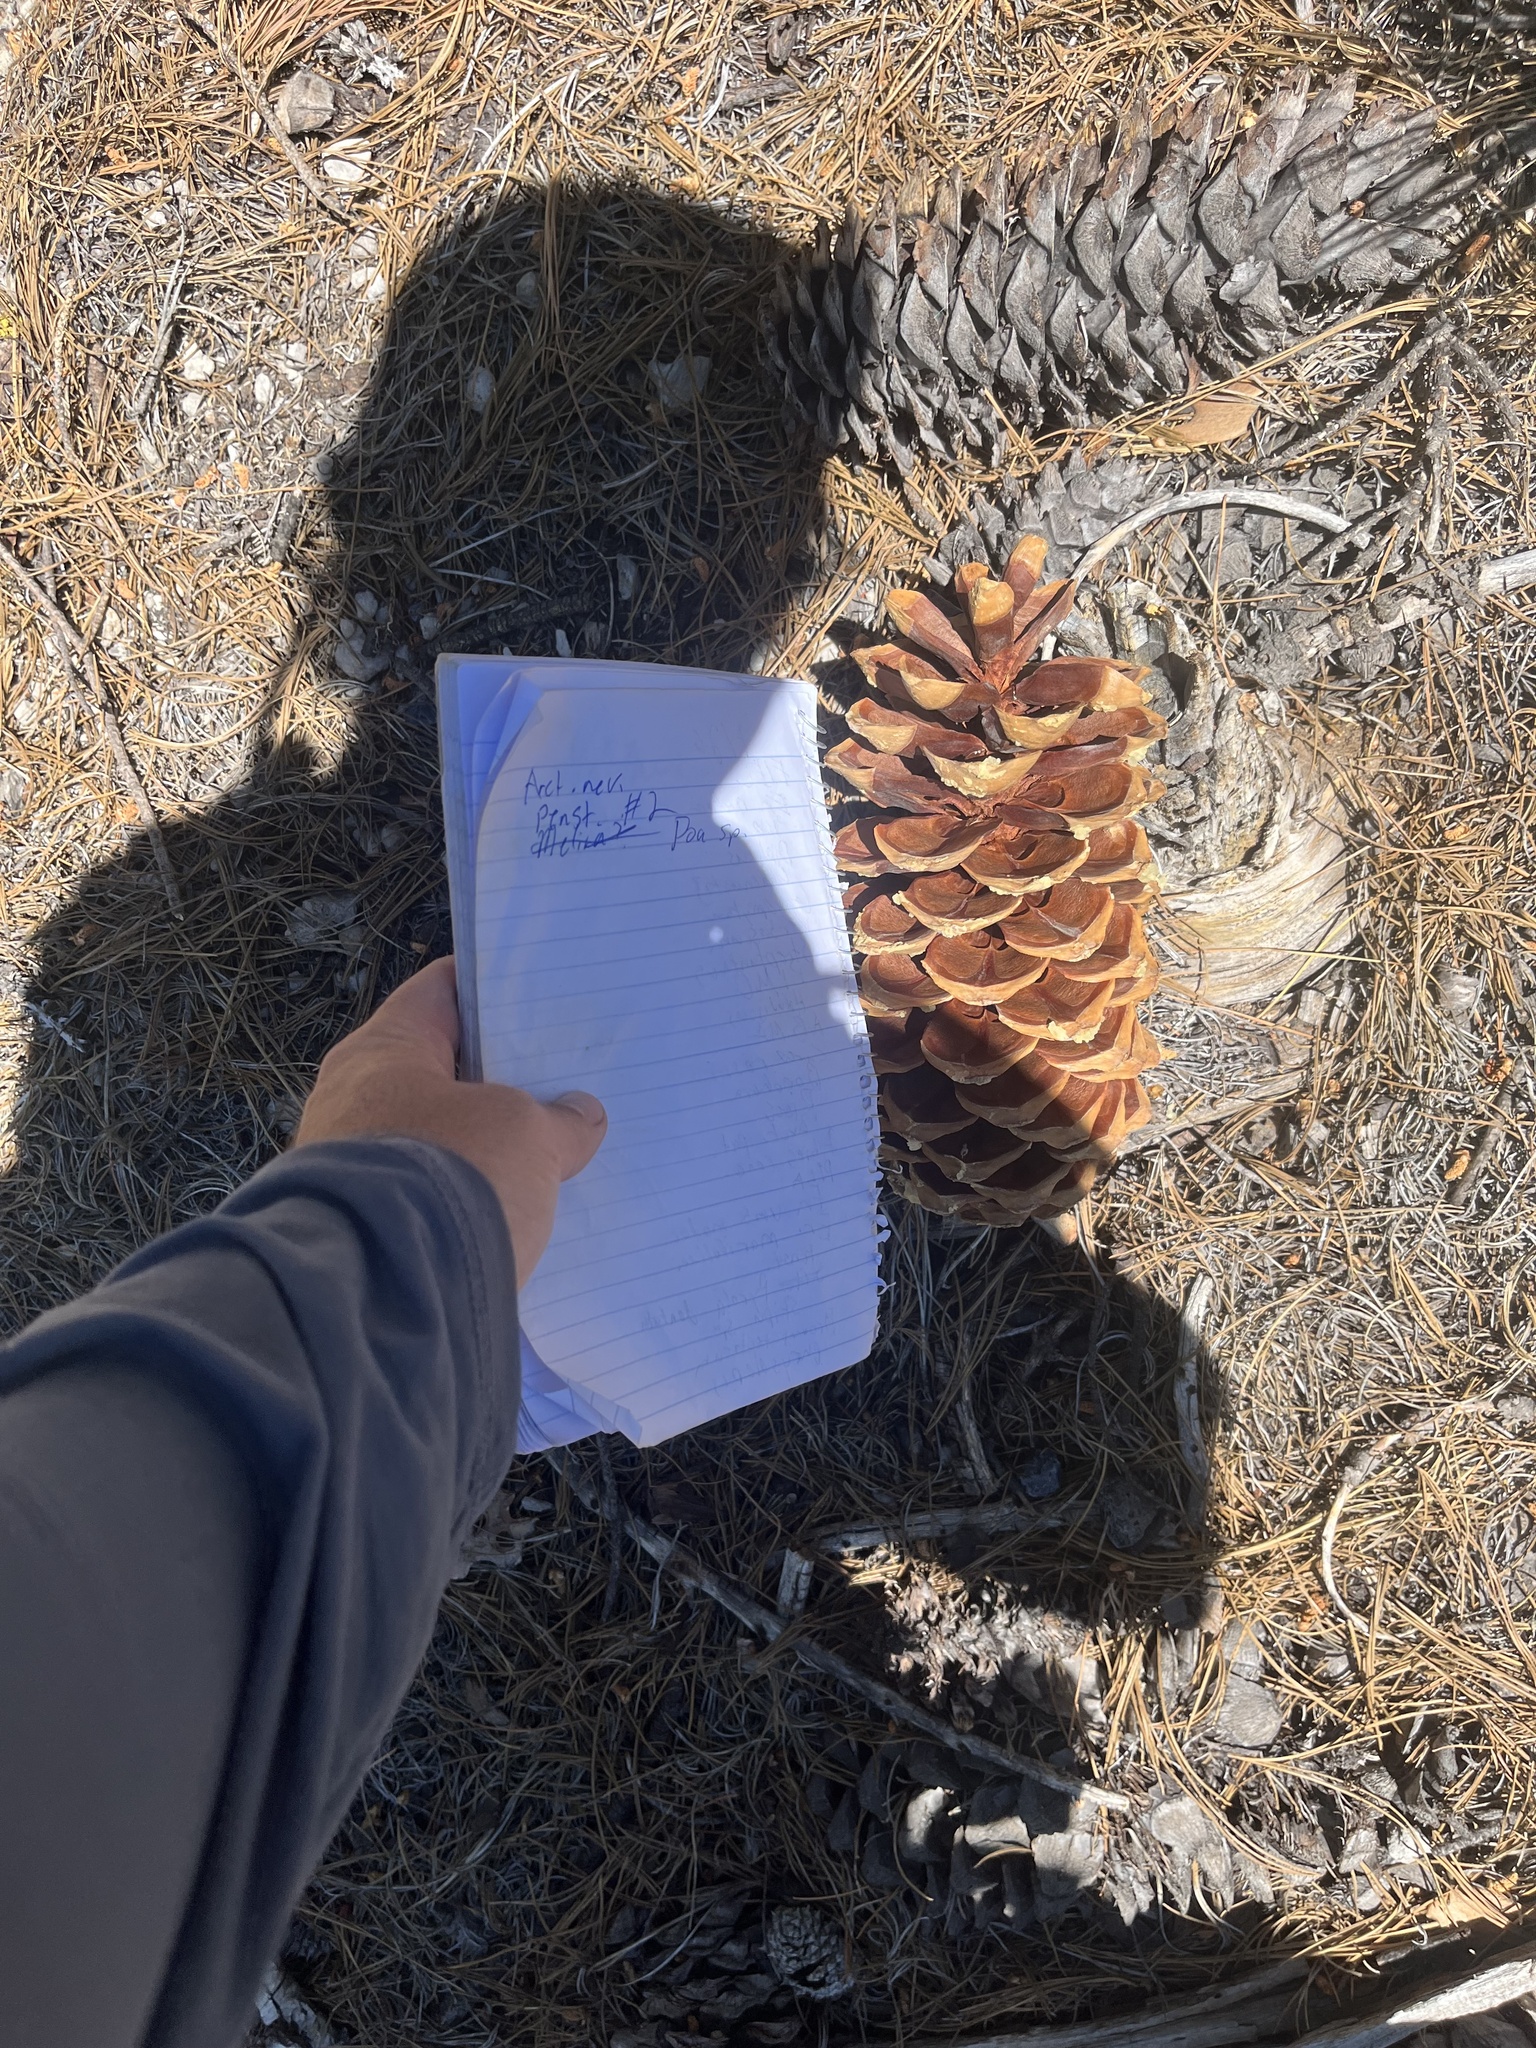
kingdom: Plantae
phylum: Tracheophyta
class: Pinopsida
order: Pinales
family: Pinaceae
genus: Pinus
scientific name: Pinus lambertiana
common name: Sugar pine
